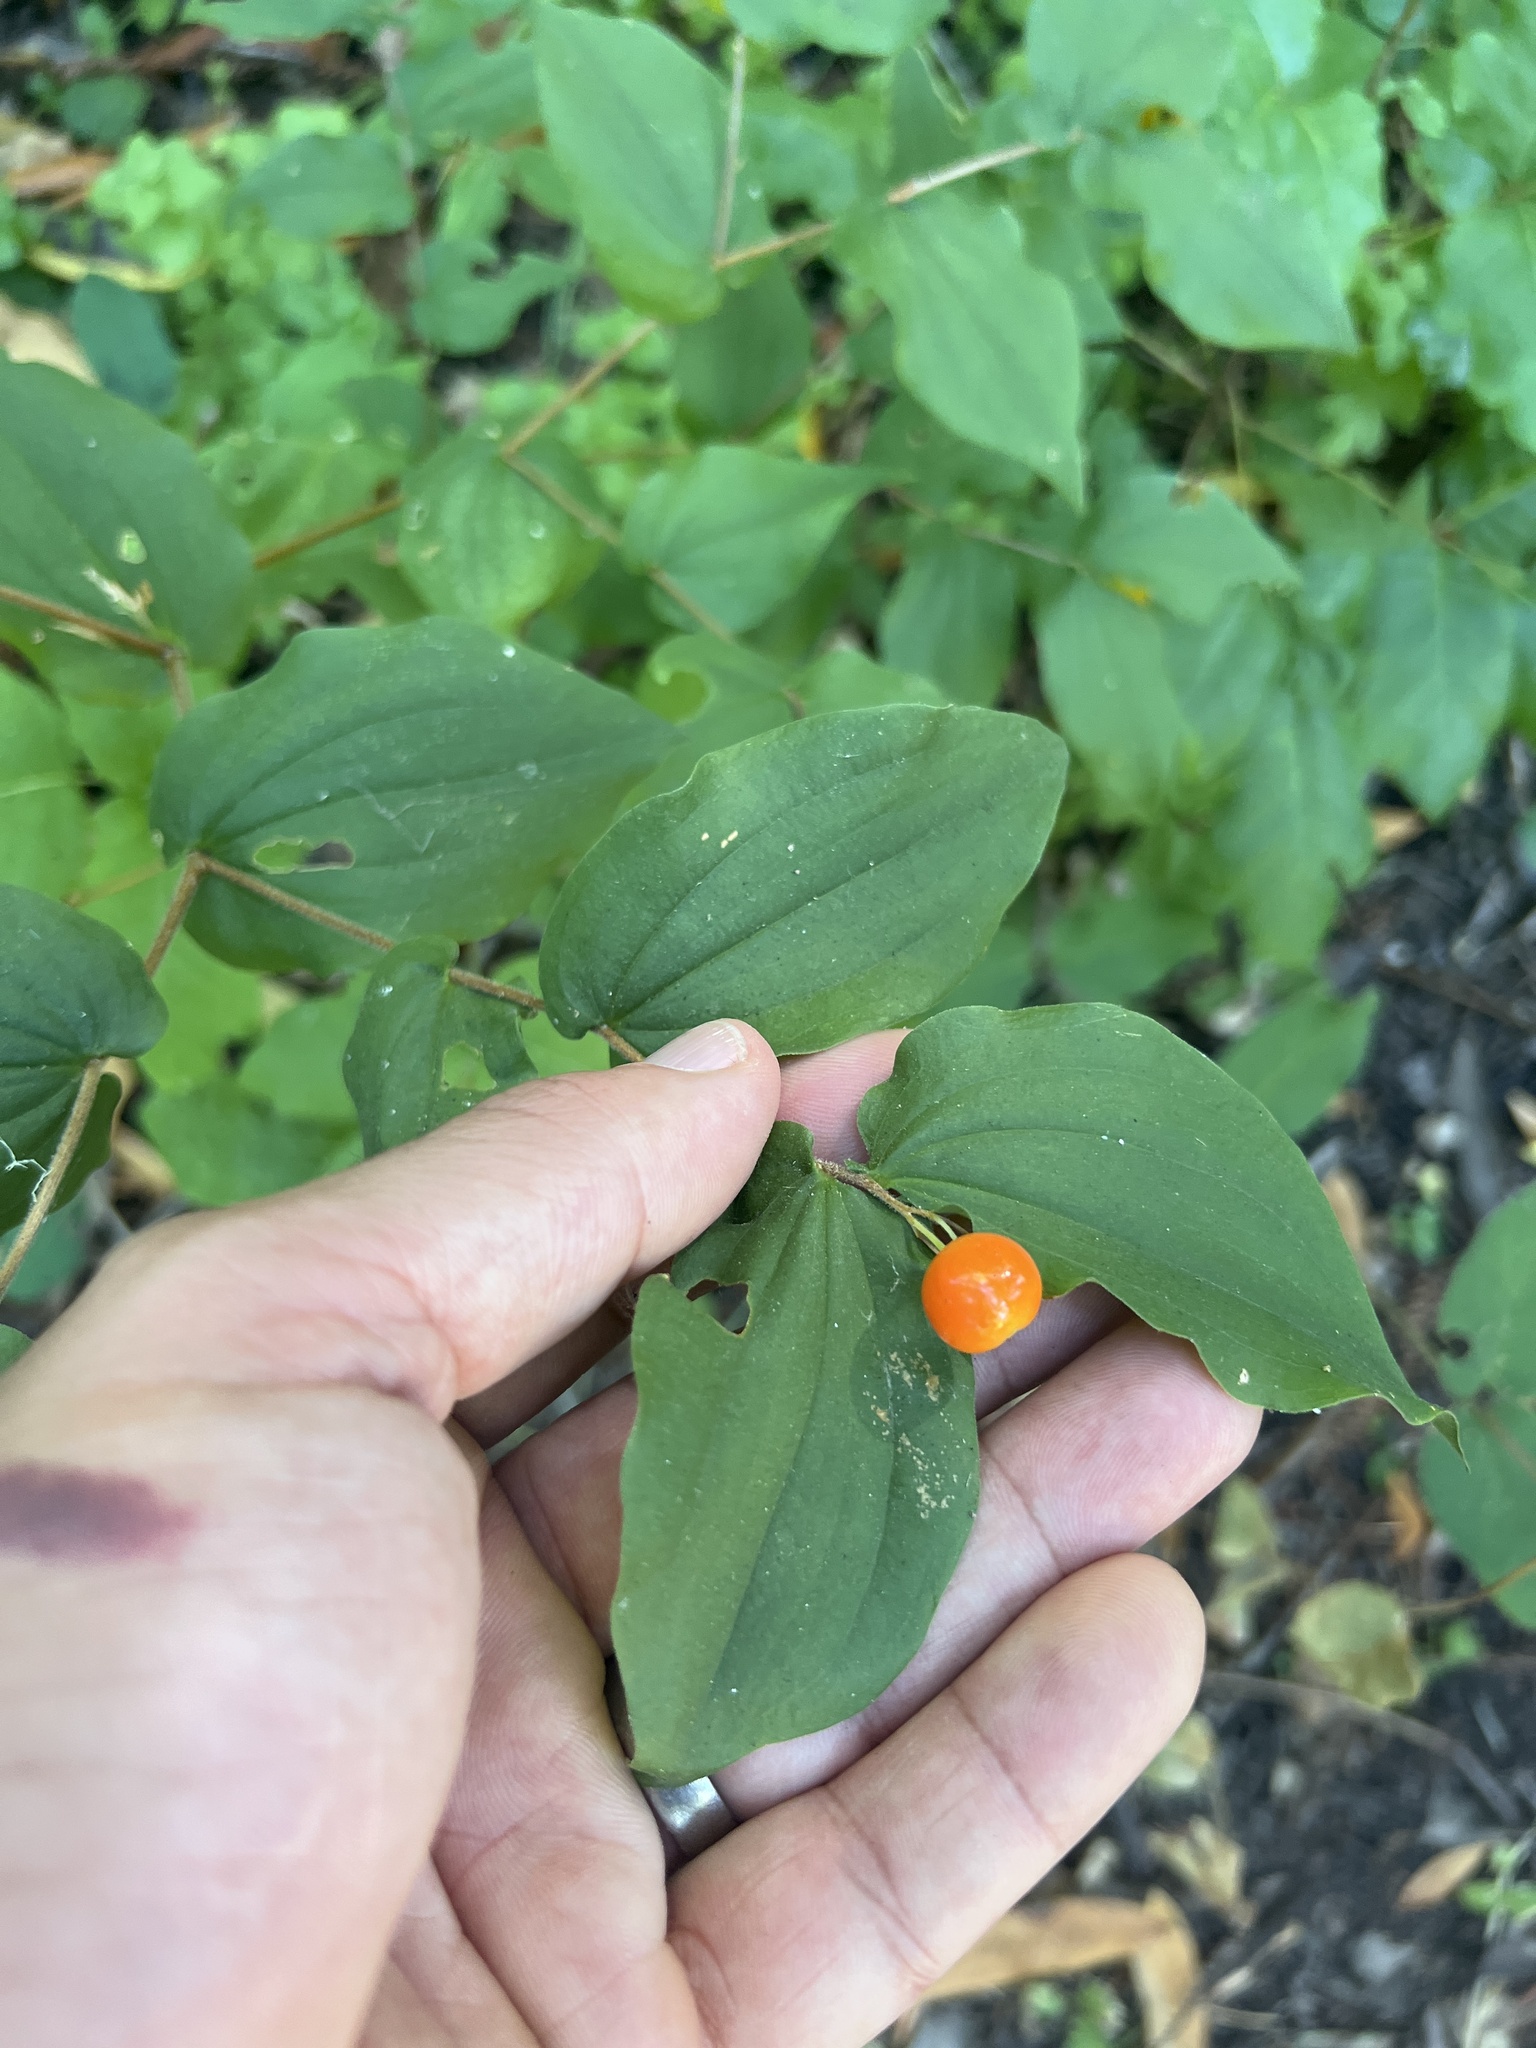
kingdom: Plantae
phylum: Tracheophyta
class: Liliopsida
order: Liliales
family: Liliaceae
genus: Prosartes
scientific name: Prosartes hookeri
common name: Fairy-bells
